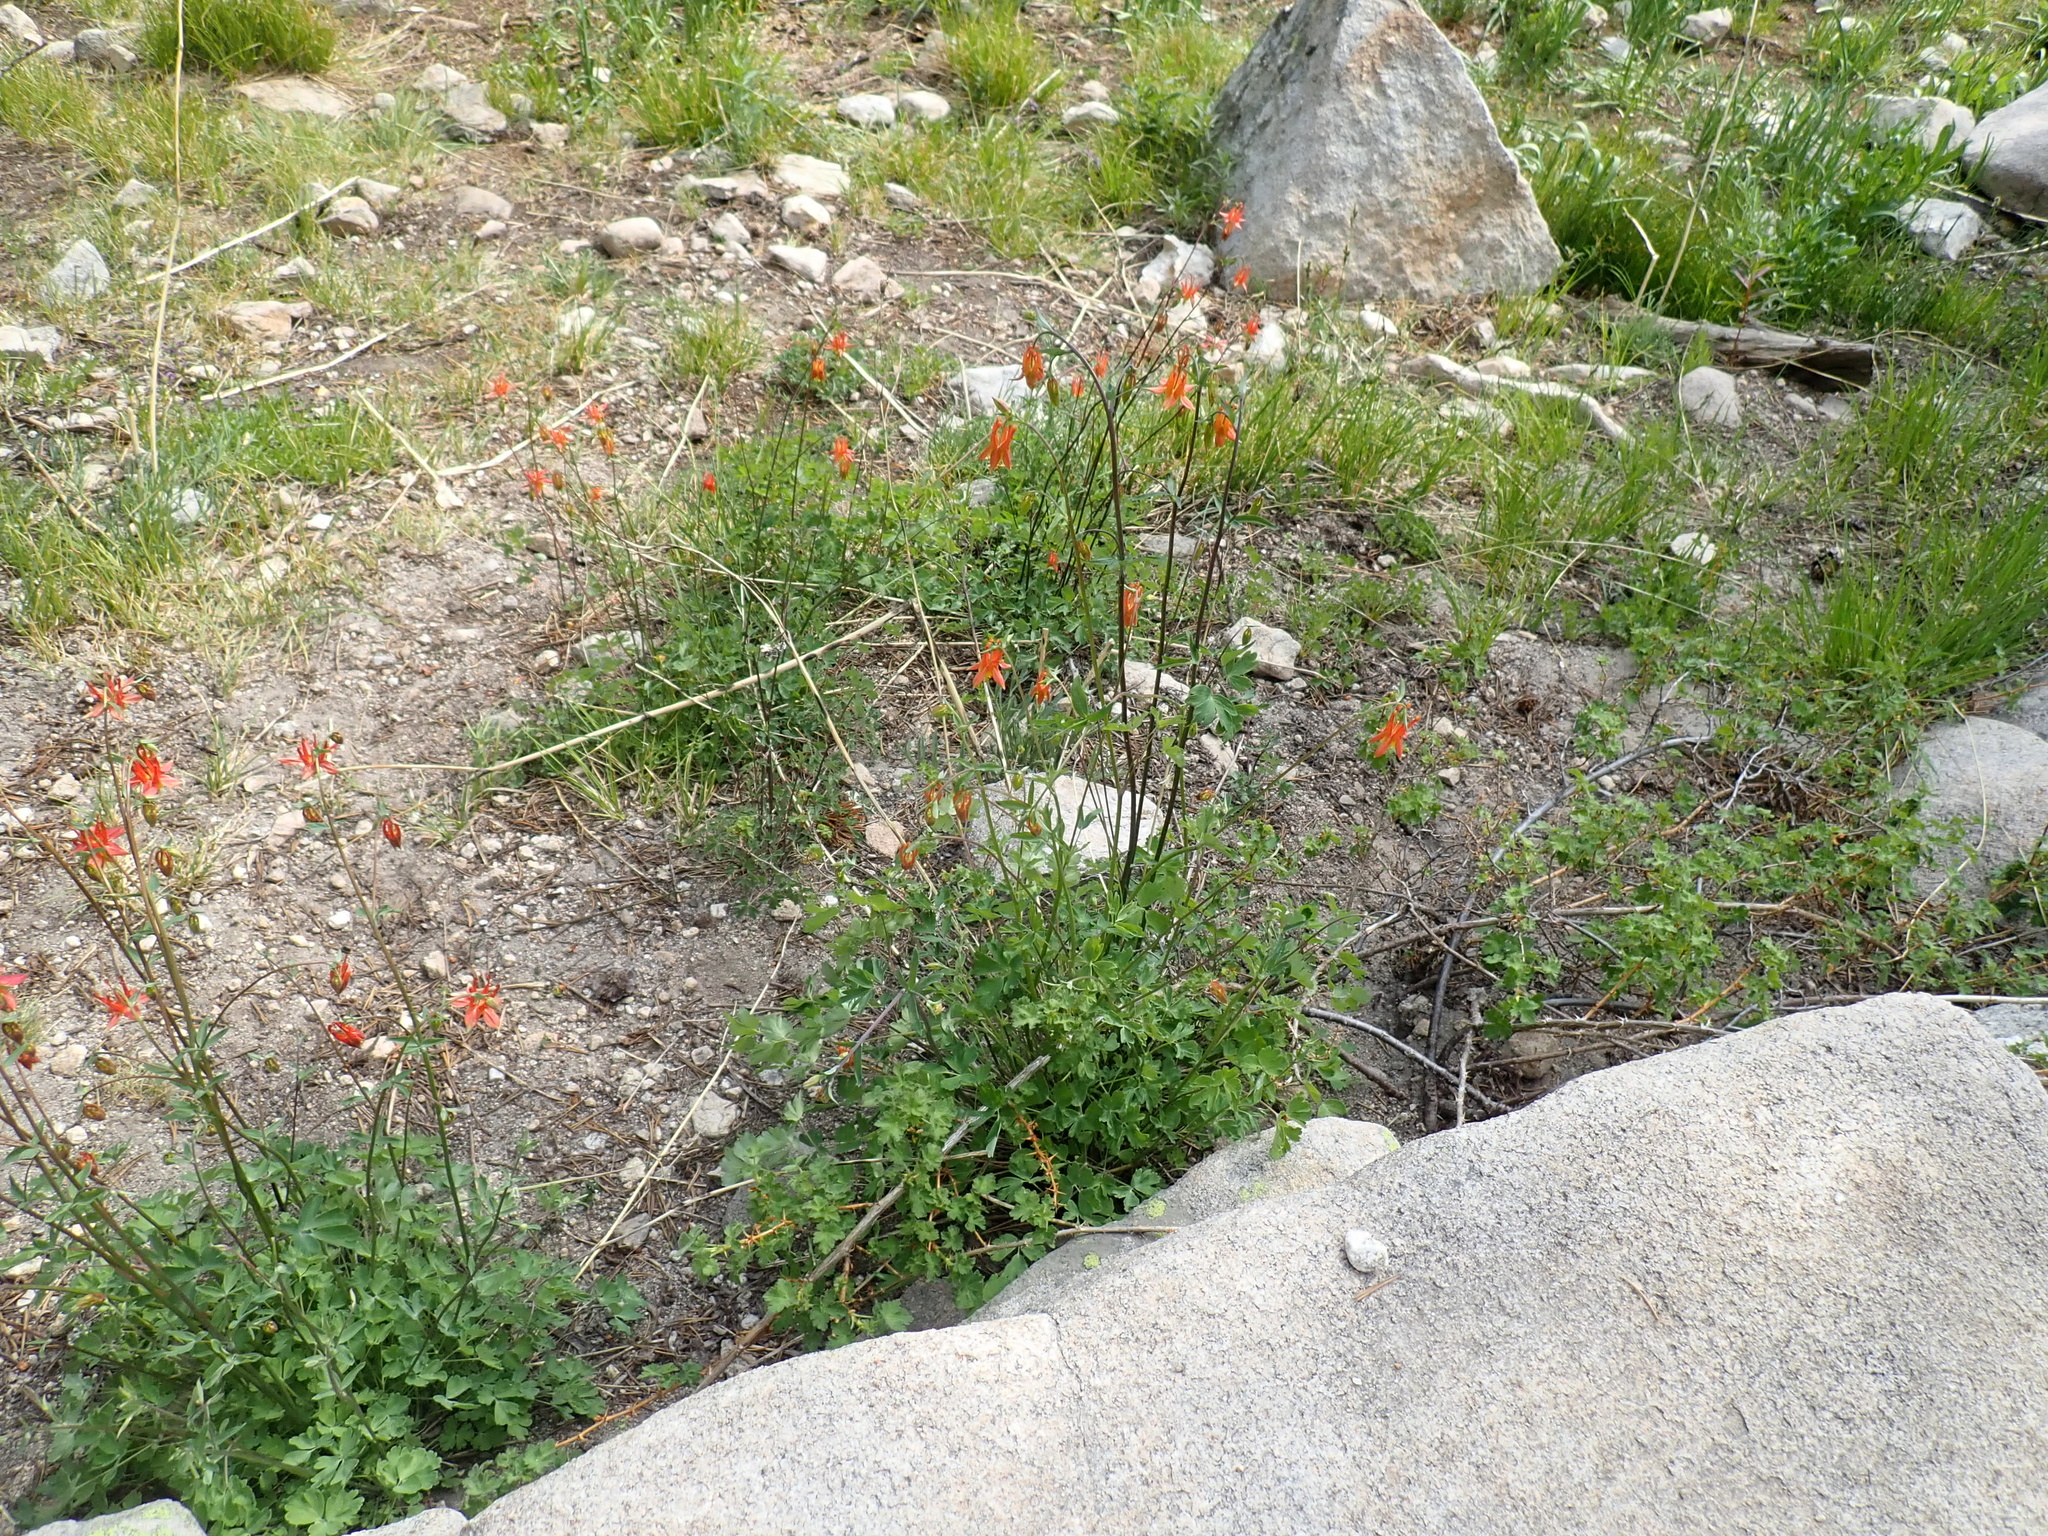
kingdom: Plantae
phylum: Tracheophyta
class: Magnoliopsida
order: Ranunculales
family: Ranunculaceae
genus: Aquilegia
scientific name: Aquilegia formosa
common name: Sitka columbine
